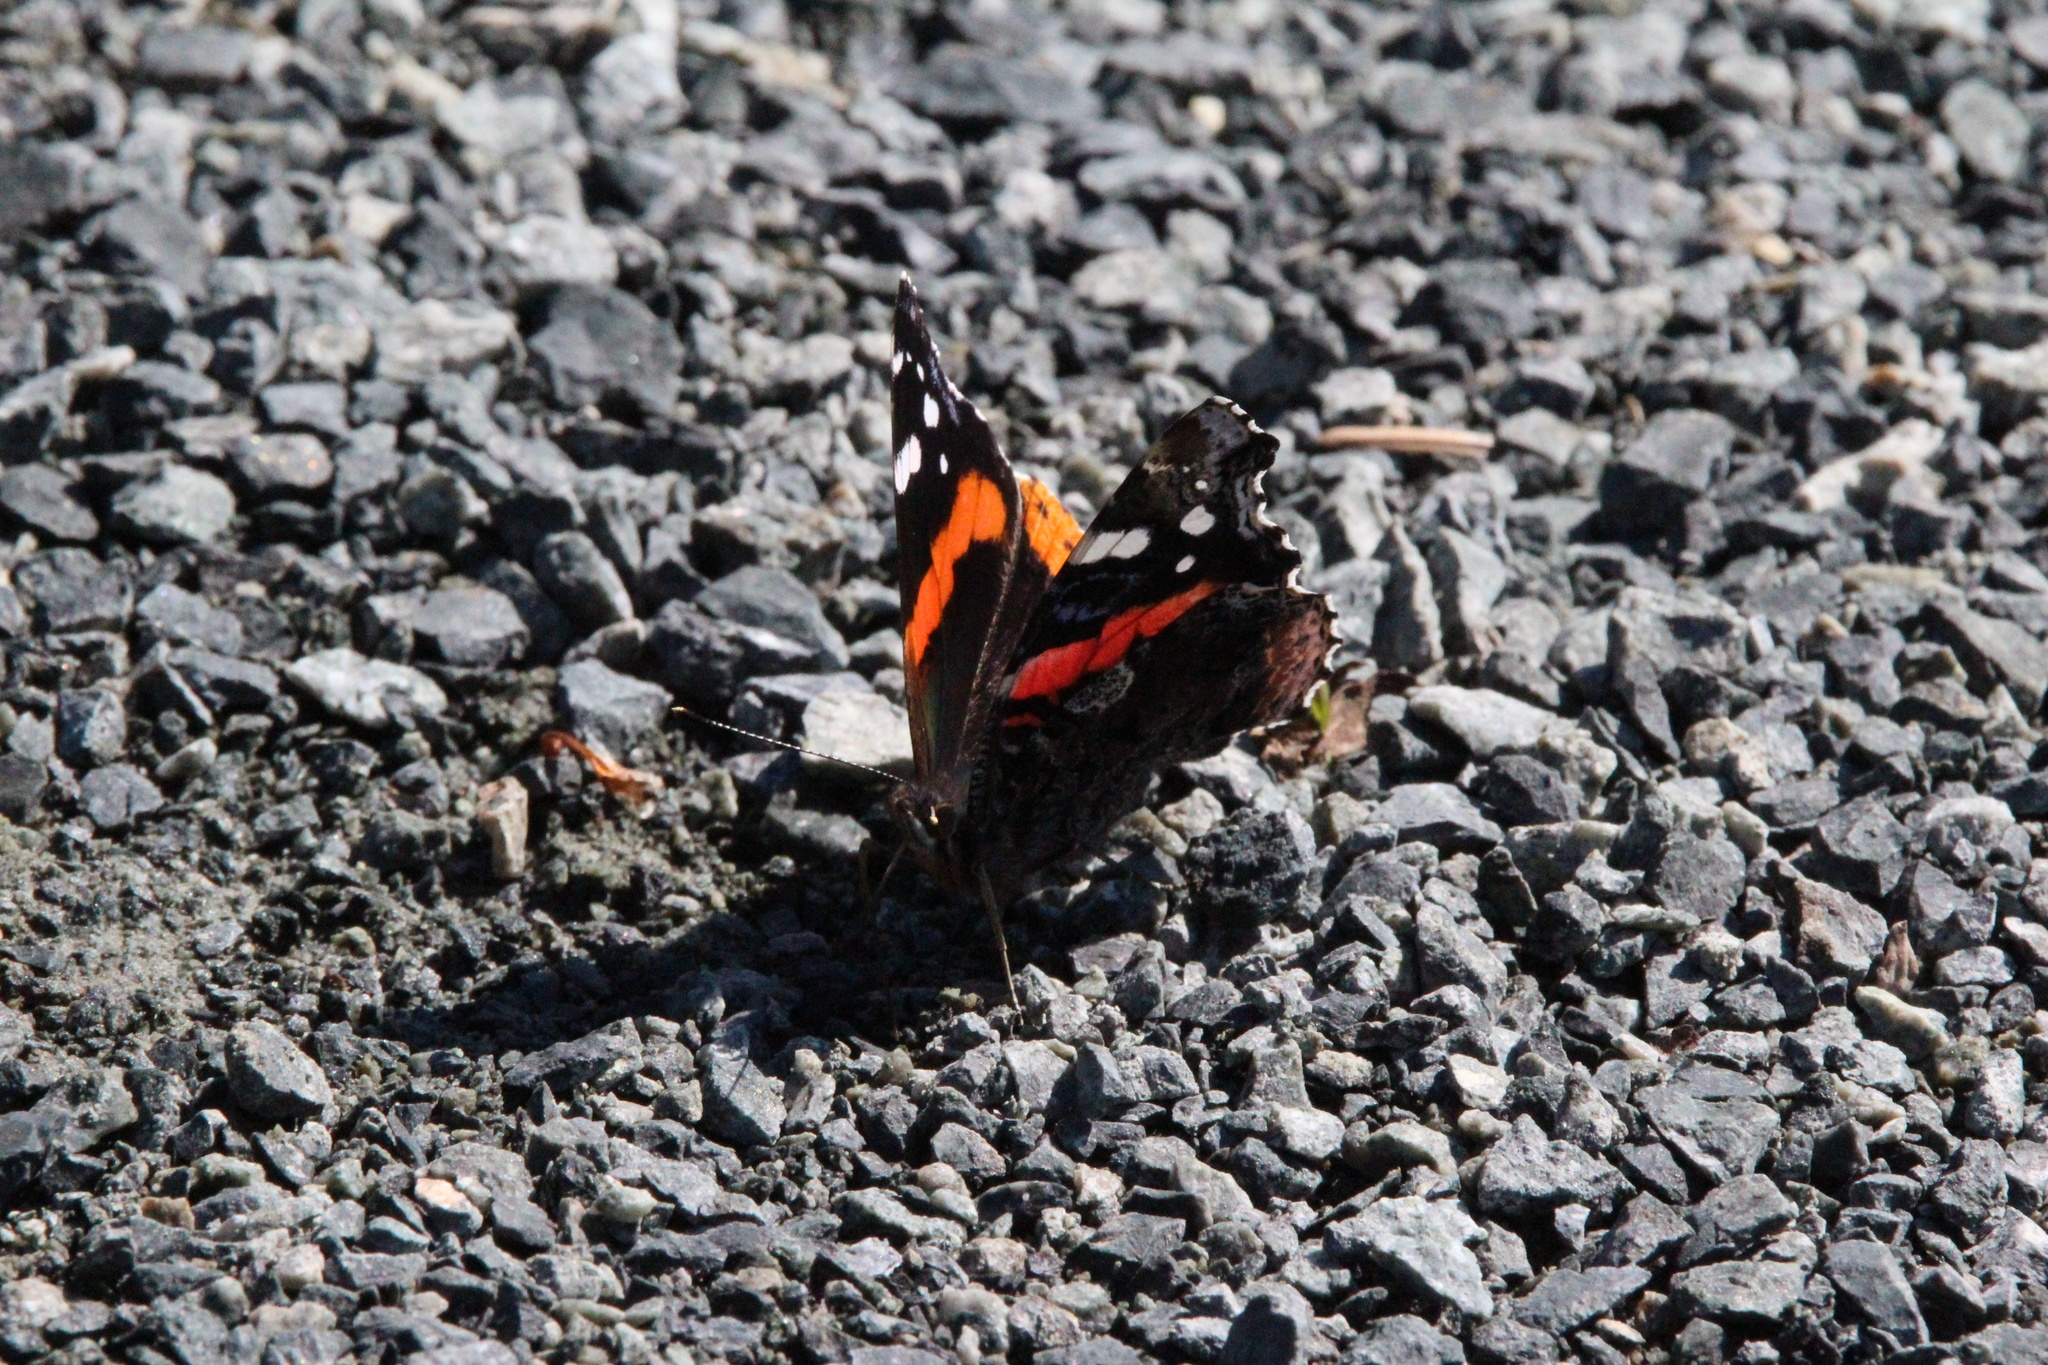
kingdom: Animalia
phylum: Arthropoda
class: Insecta
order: Lepidoptera
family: Nymphalidae
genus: Vanessa
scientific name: Vanessa atalanta
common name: Red admiral
